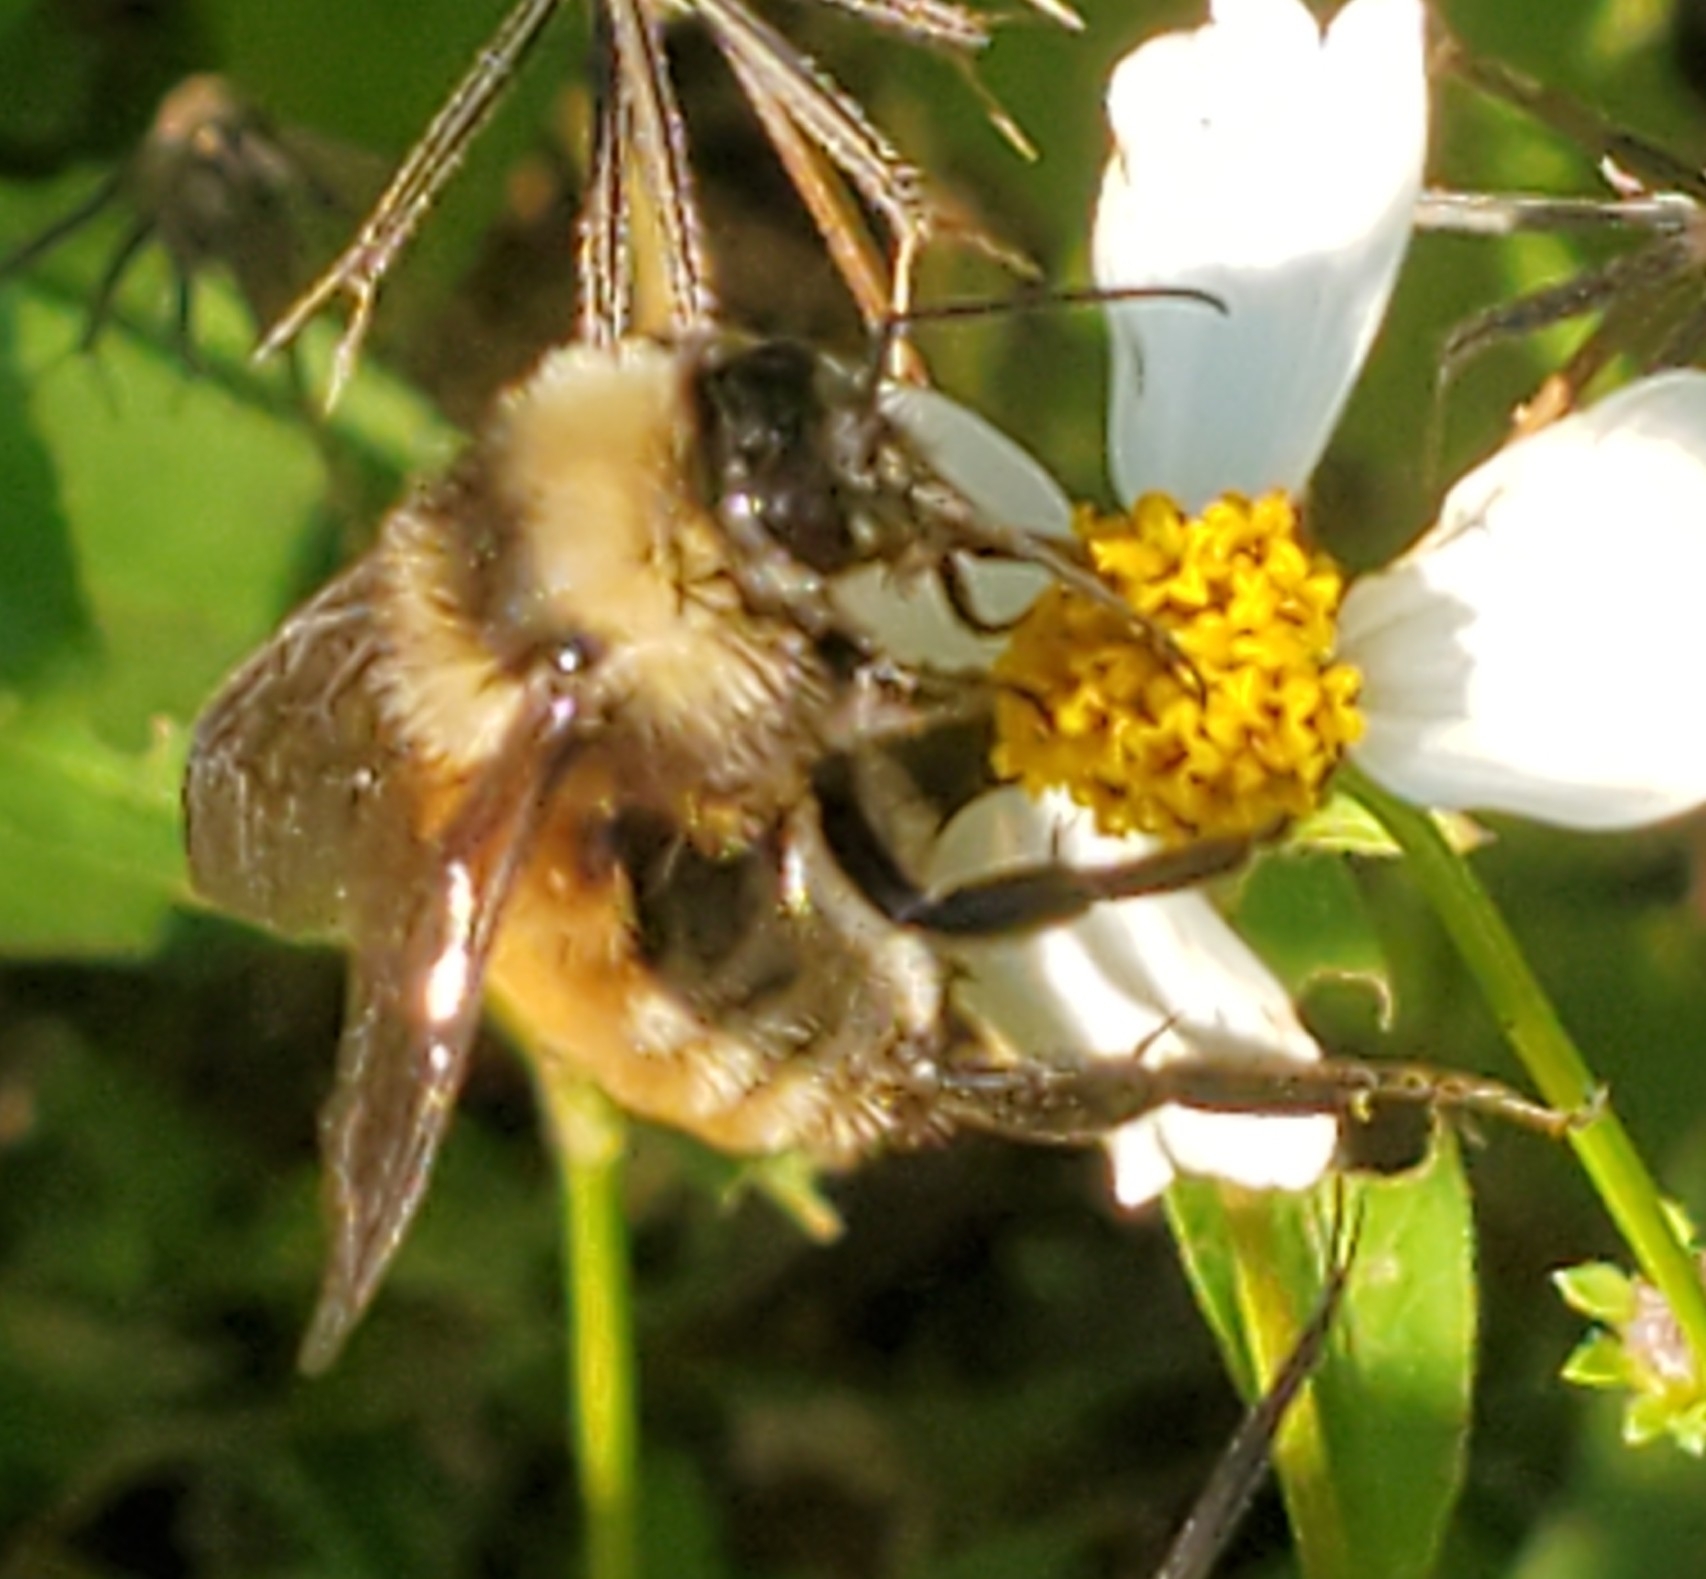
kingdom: Animalia
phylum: Arthropoda
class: Insecta
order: Hymenoptera
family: Apidae
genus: Bombus
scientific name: Bombus pensylvanicus
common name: Bumble bee
